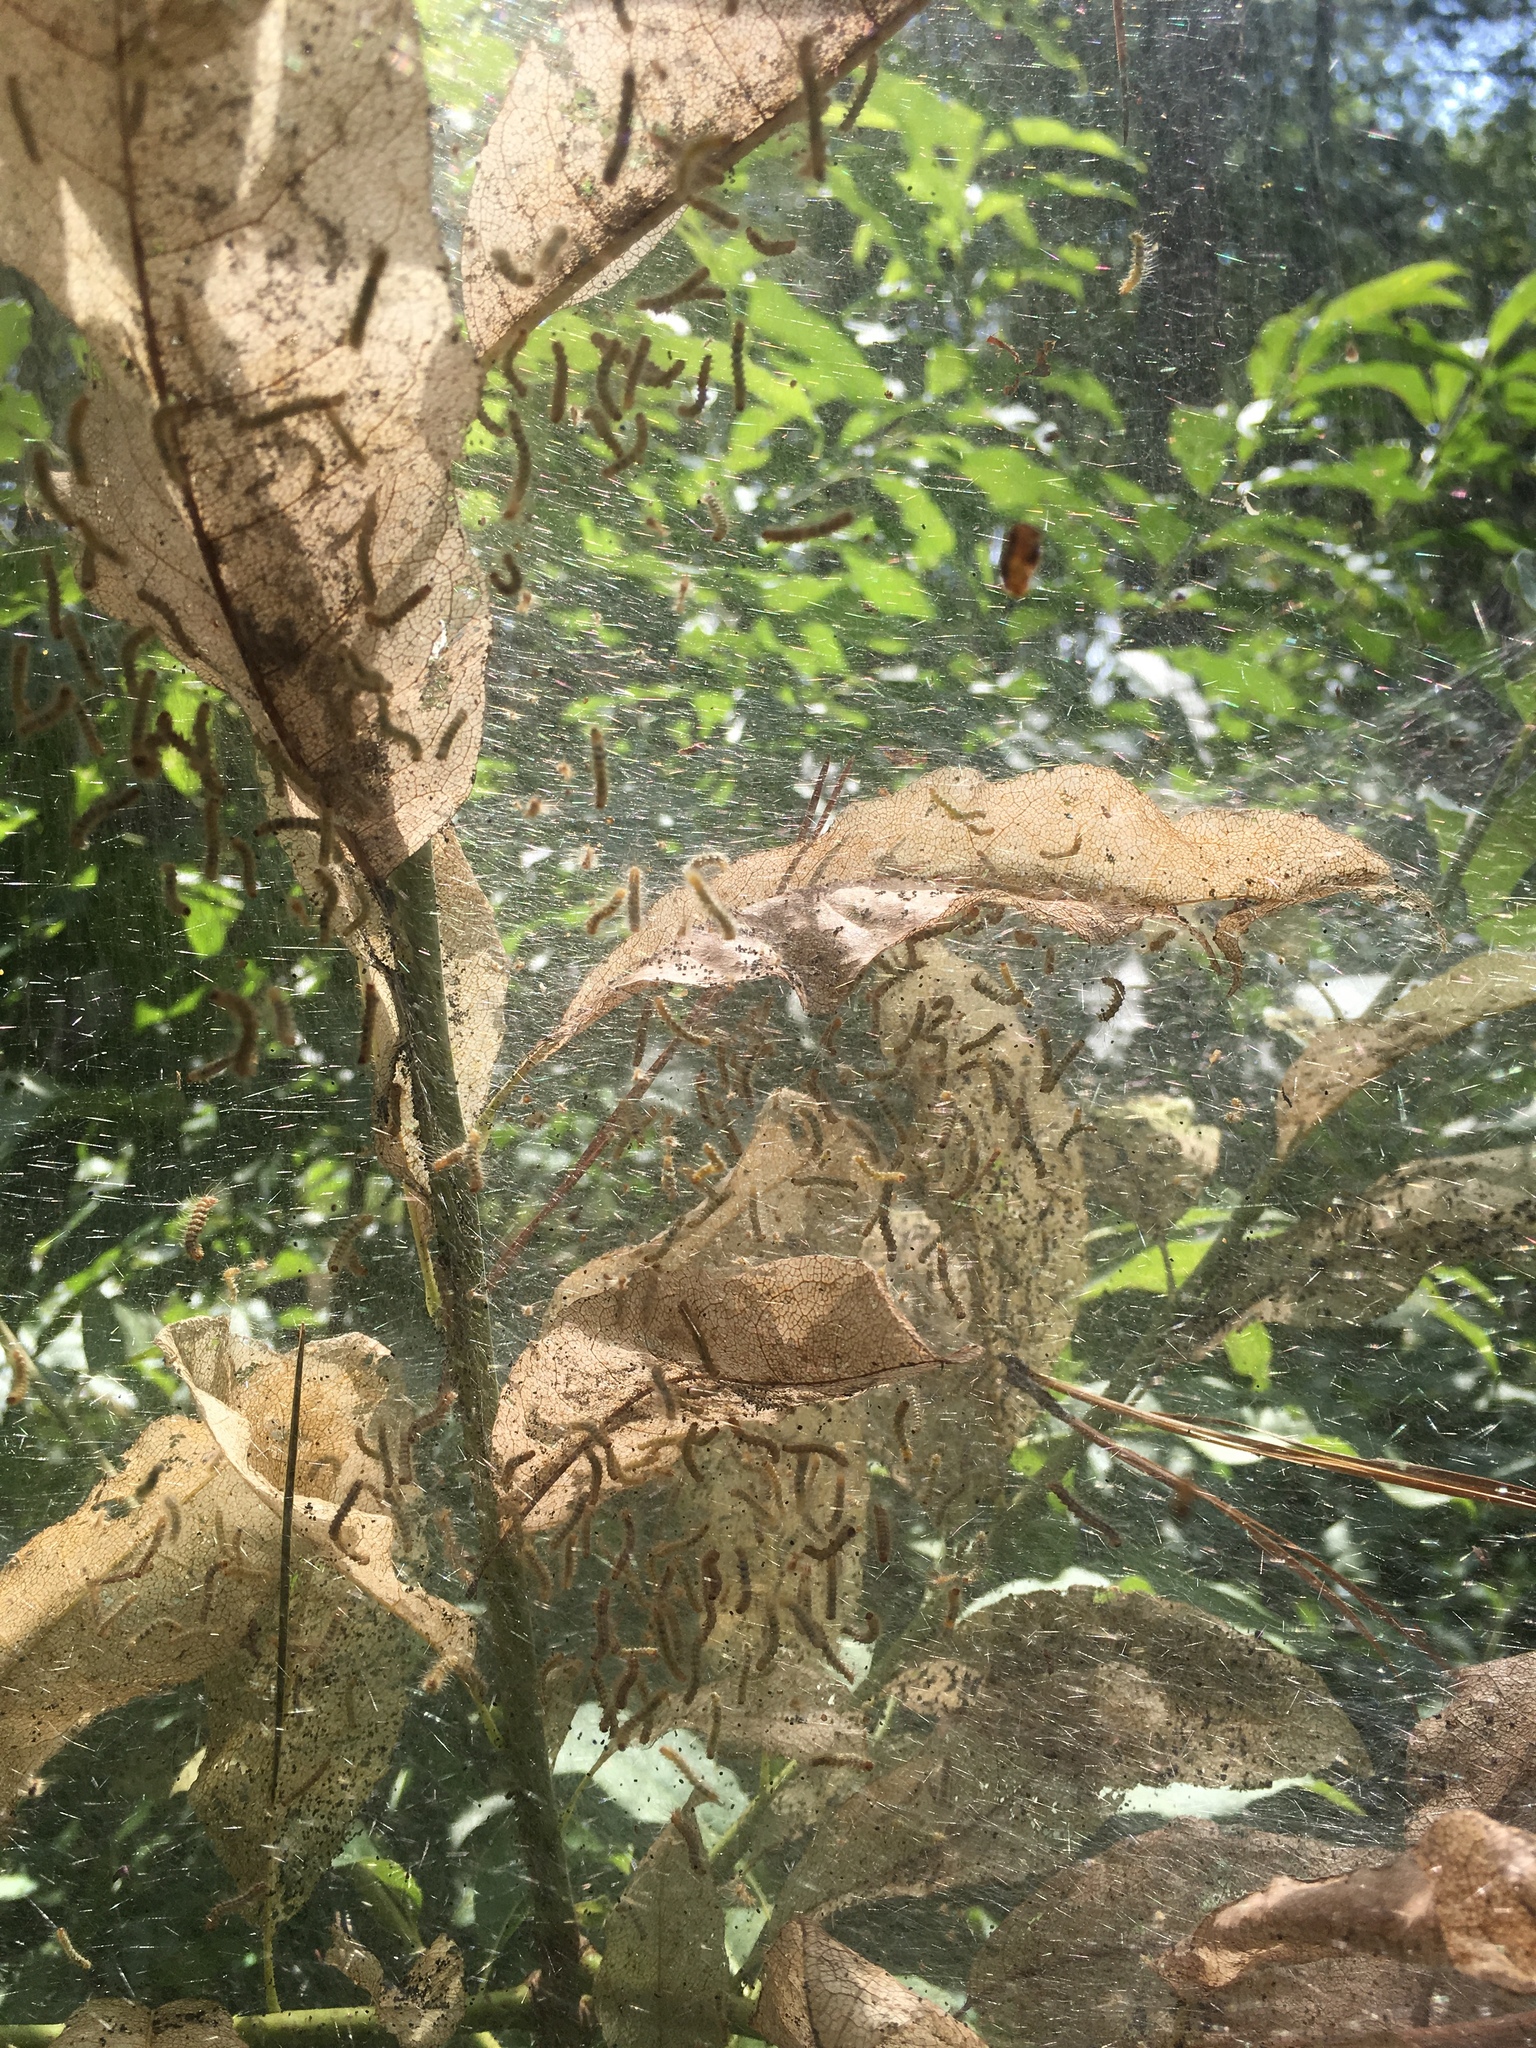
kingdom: Animalia
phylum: Arthropoda
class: Insecta
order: Lepidoptera
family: Erebidae
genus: Hyphantria
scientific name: Hyphantria cunea
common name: American white moth
